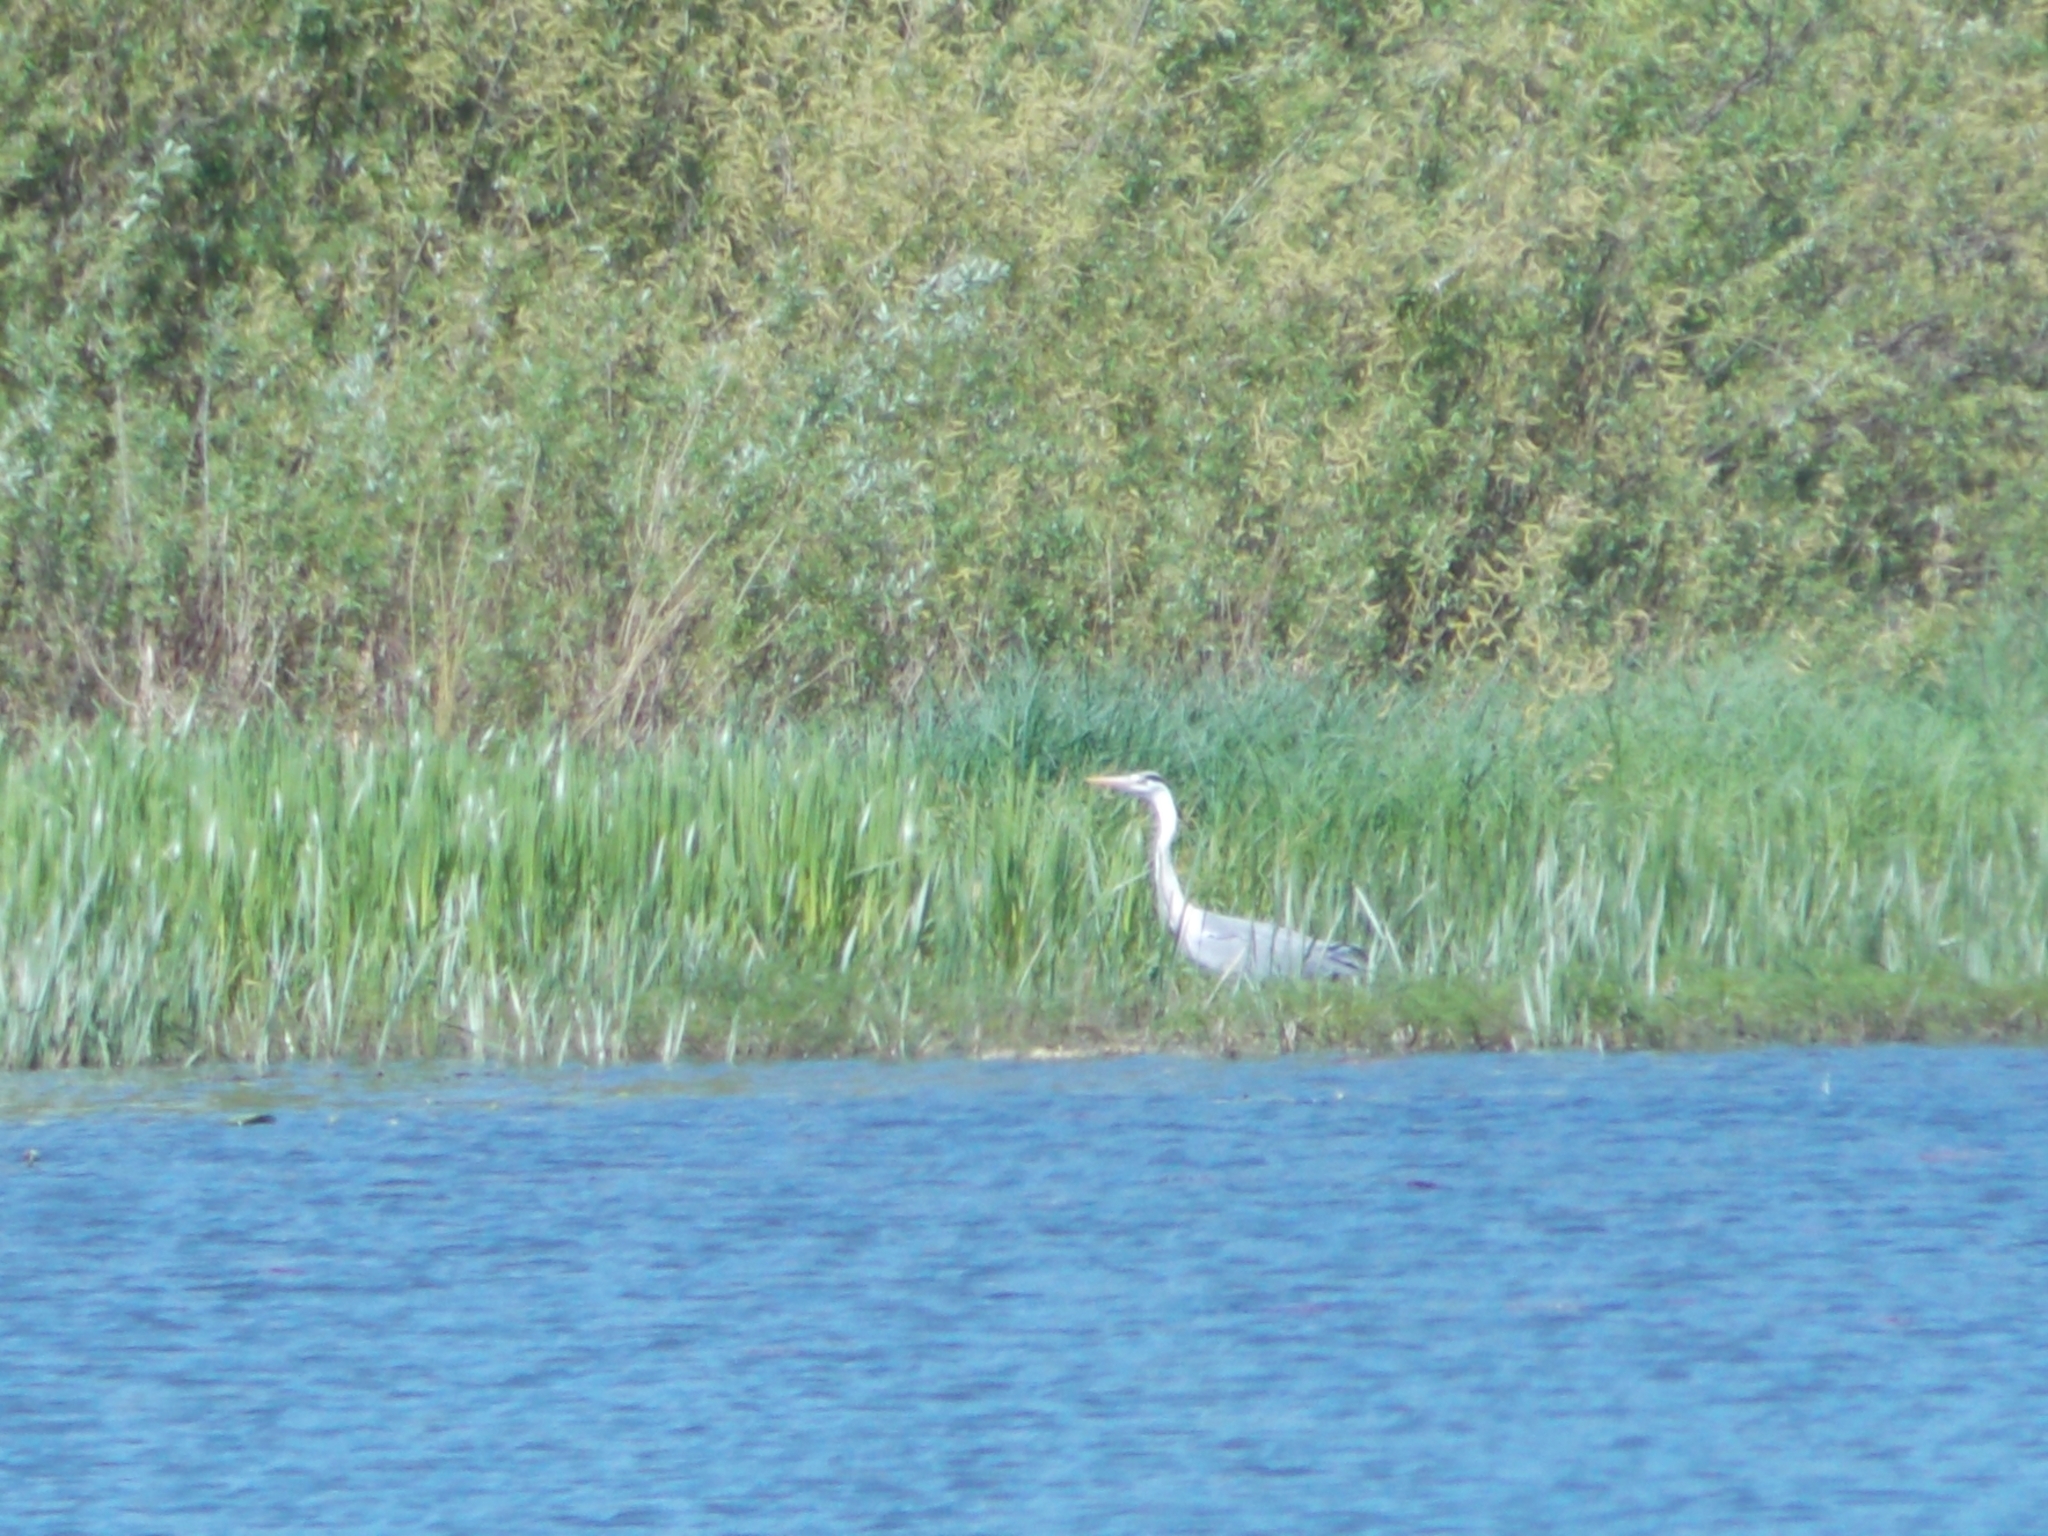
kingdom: Animalia
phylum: Chordata
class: Aves
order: Pelecaniformes
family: Ardeidae
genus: Ardea
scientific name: Ardea cinerea
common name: Grey heron
